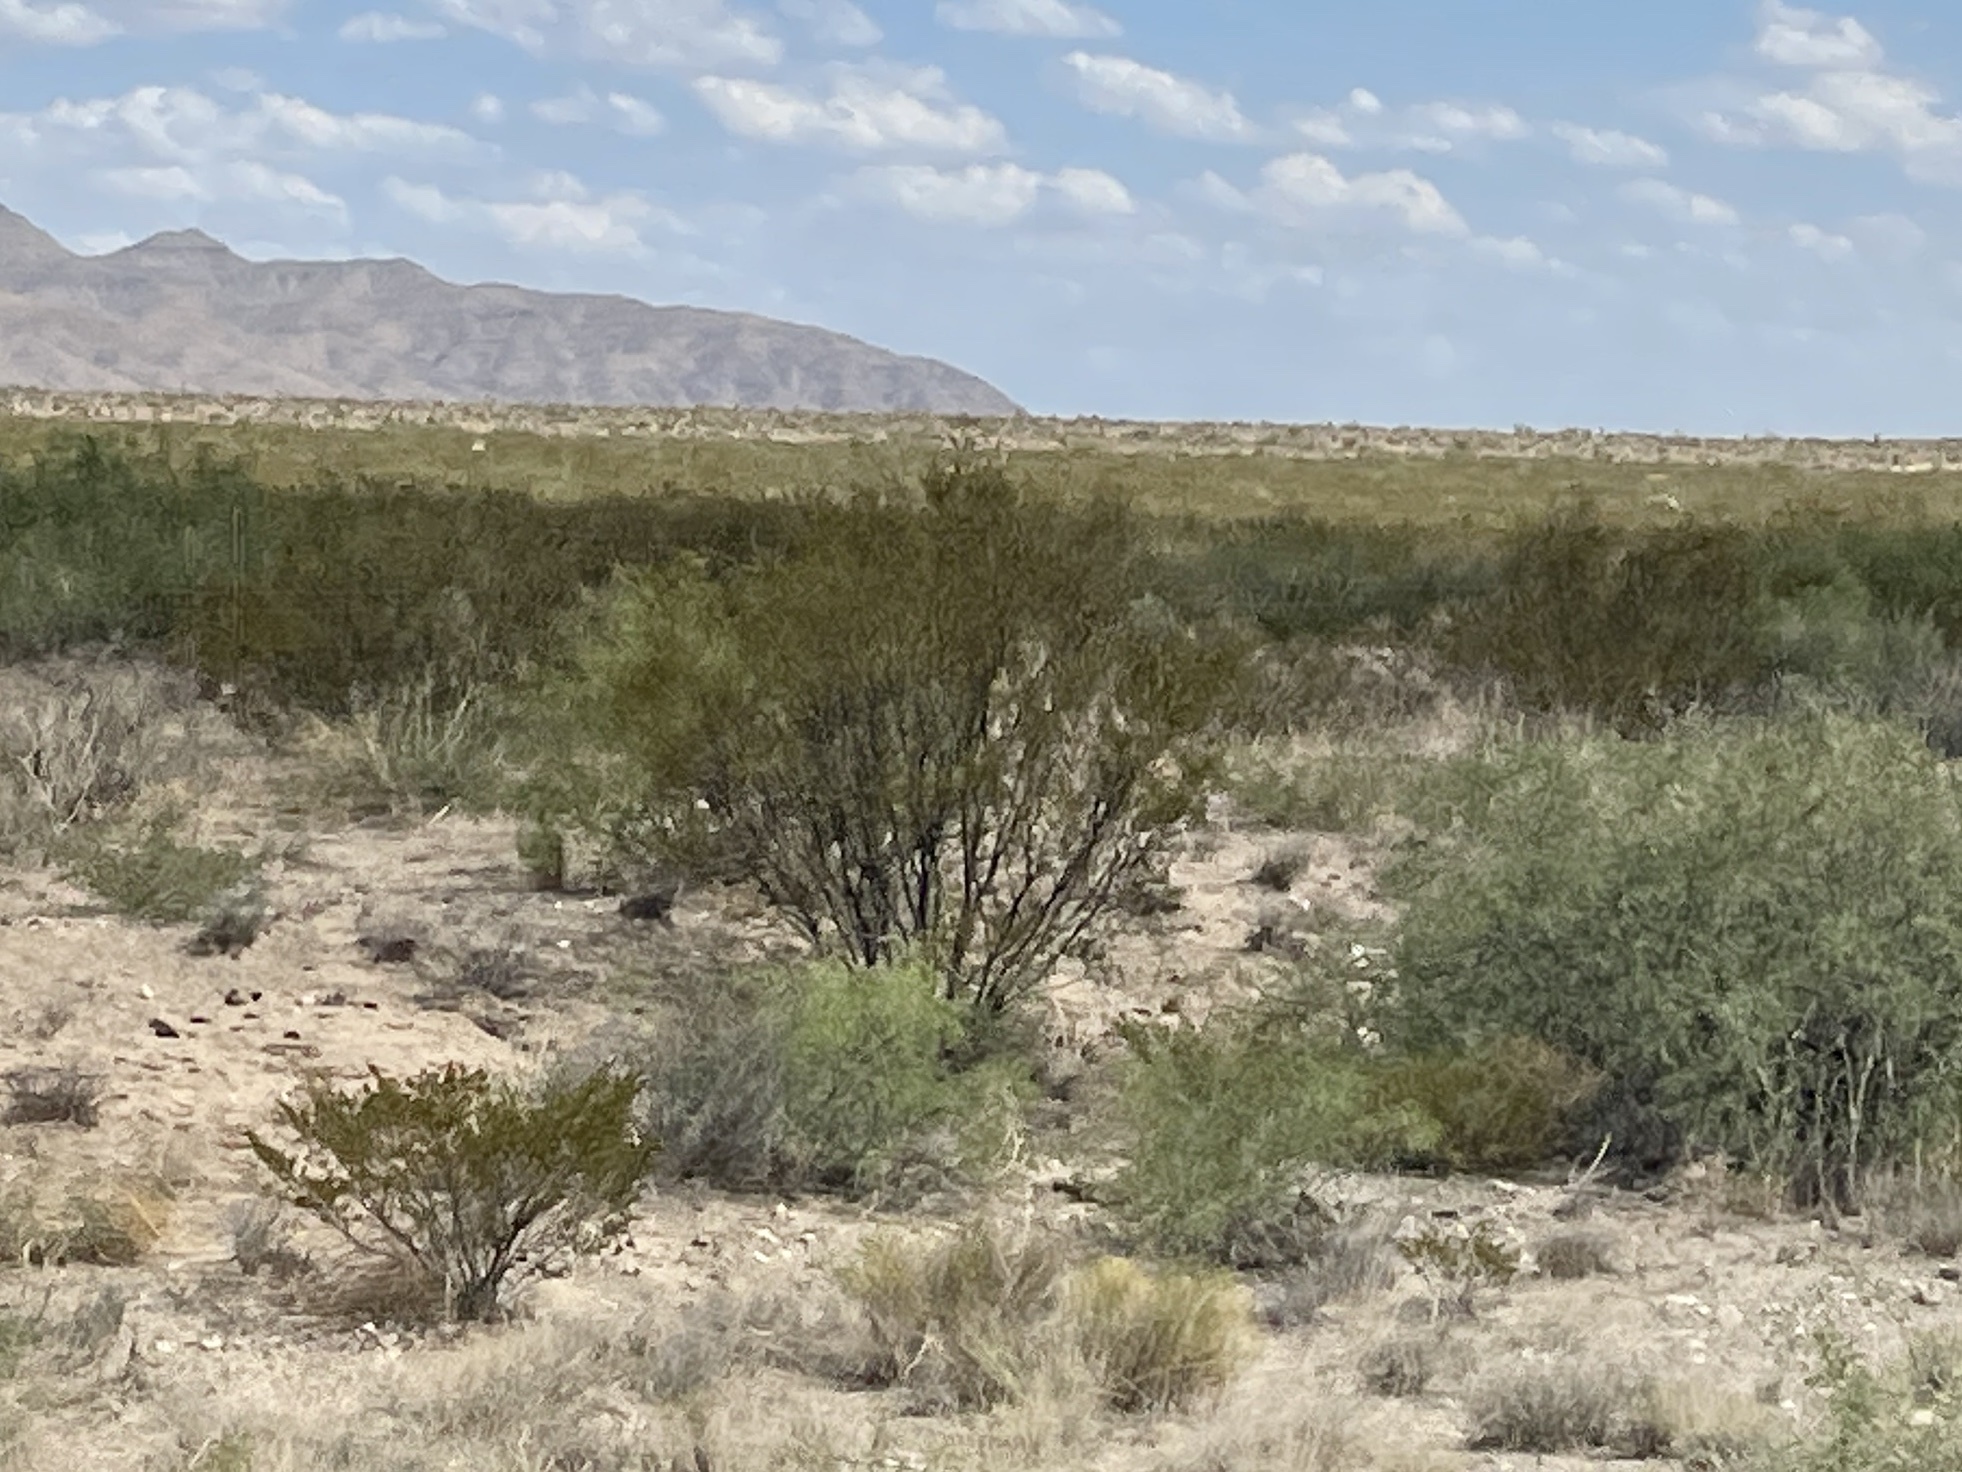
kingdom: Plantae
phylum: Tracheophyta
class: Magnoliopsida
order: Zygophyllales
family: Zygophyllaceae
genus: Larrea
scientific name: Larrea tridentata
